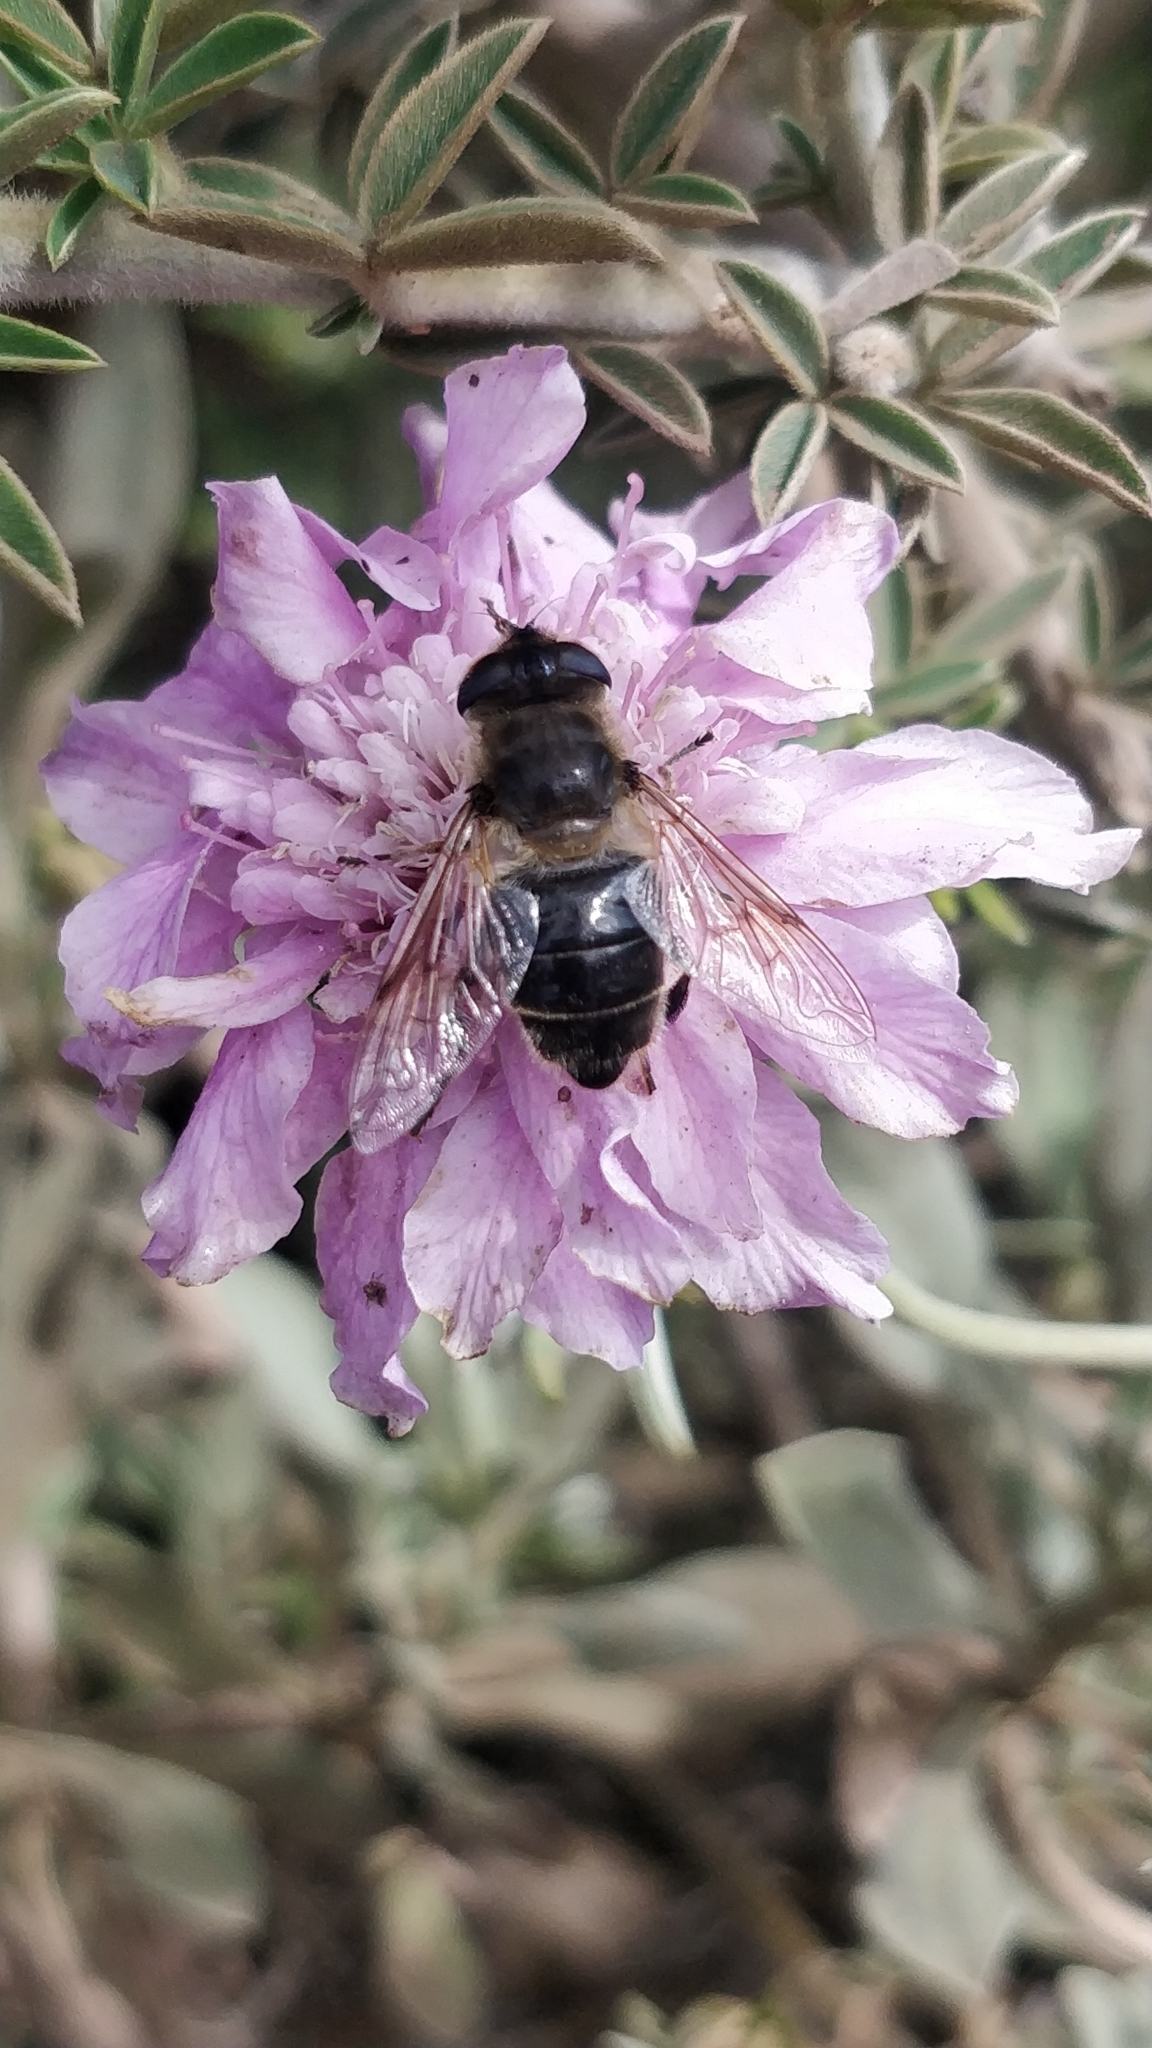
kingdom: Animalia
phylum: Arthropoda
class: Insecta
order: Diptera
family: Syrphidae
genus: Eristalis
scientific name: Eristalis tenax
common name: Drone fly
